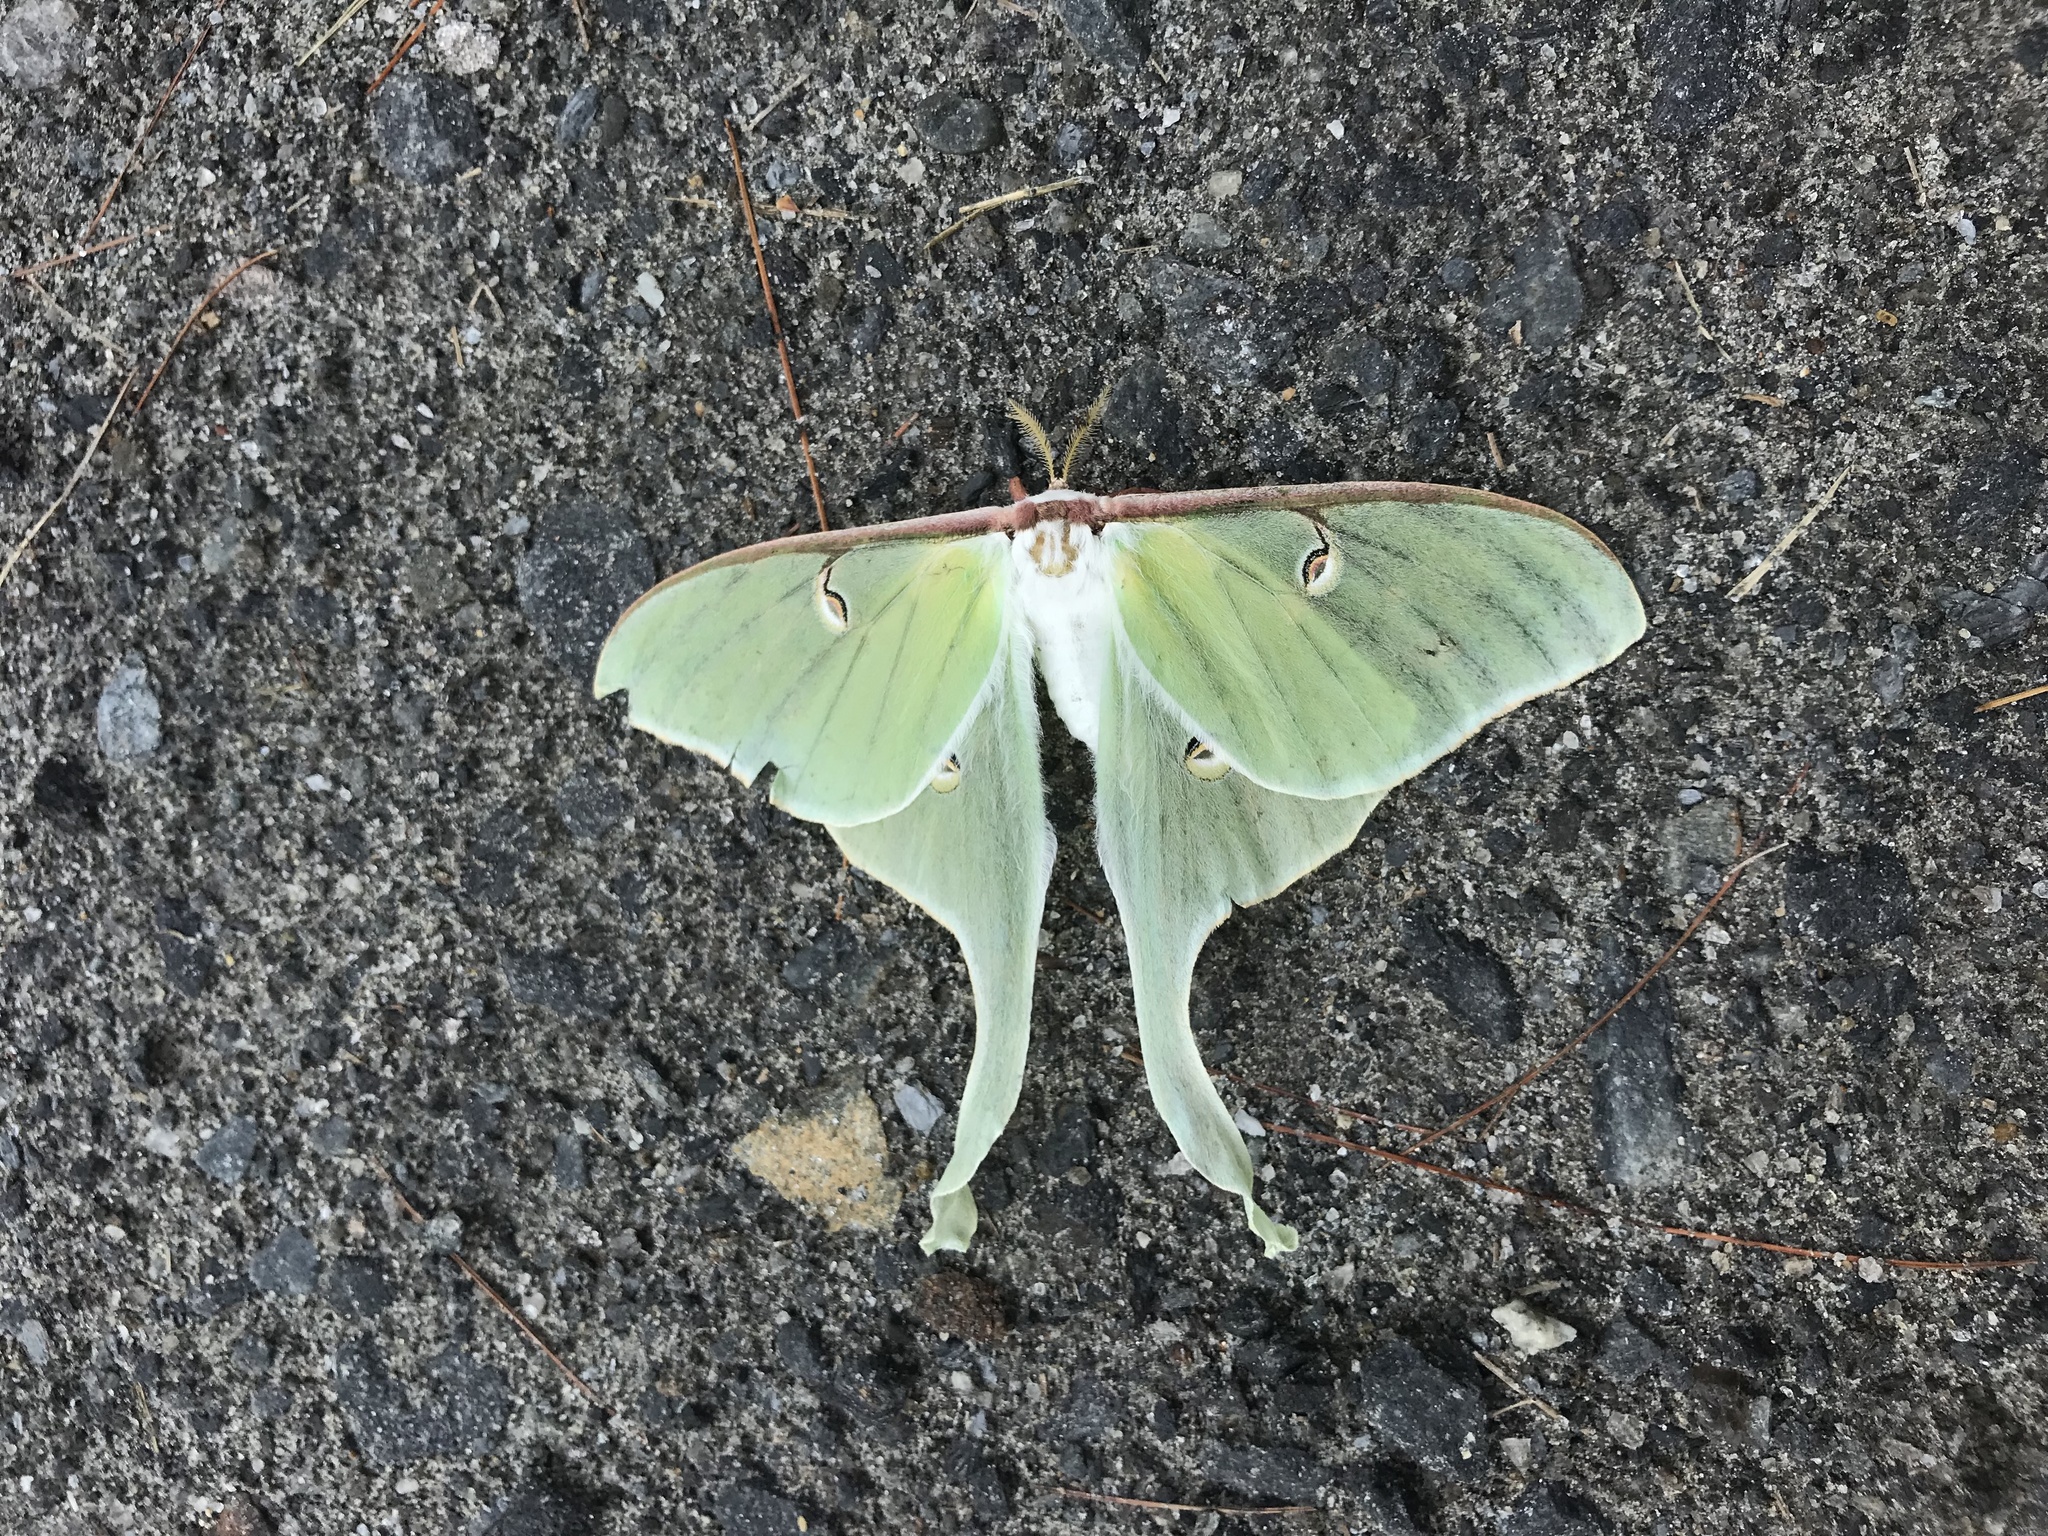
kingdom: Animalia
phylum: Arthropoda
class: Insecta
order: Lepidoptera
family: Saturniidae
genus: Actias
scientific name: Actias luna
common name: Luna moth
